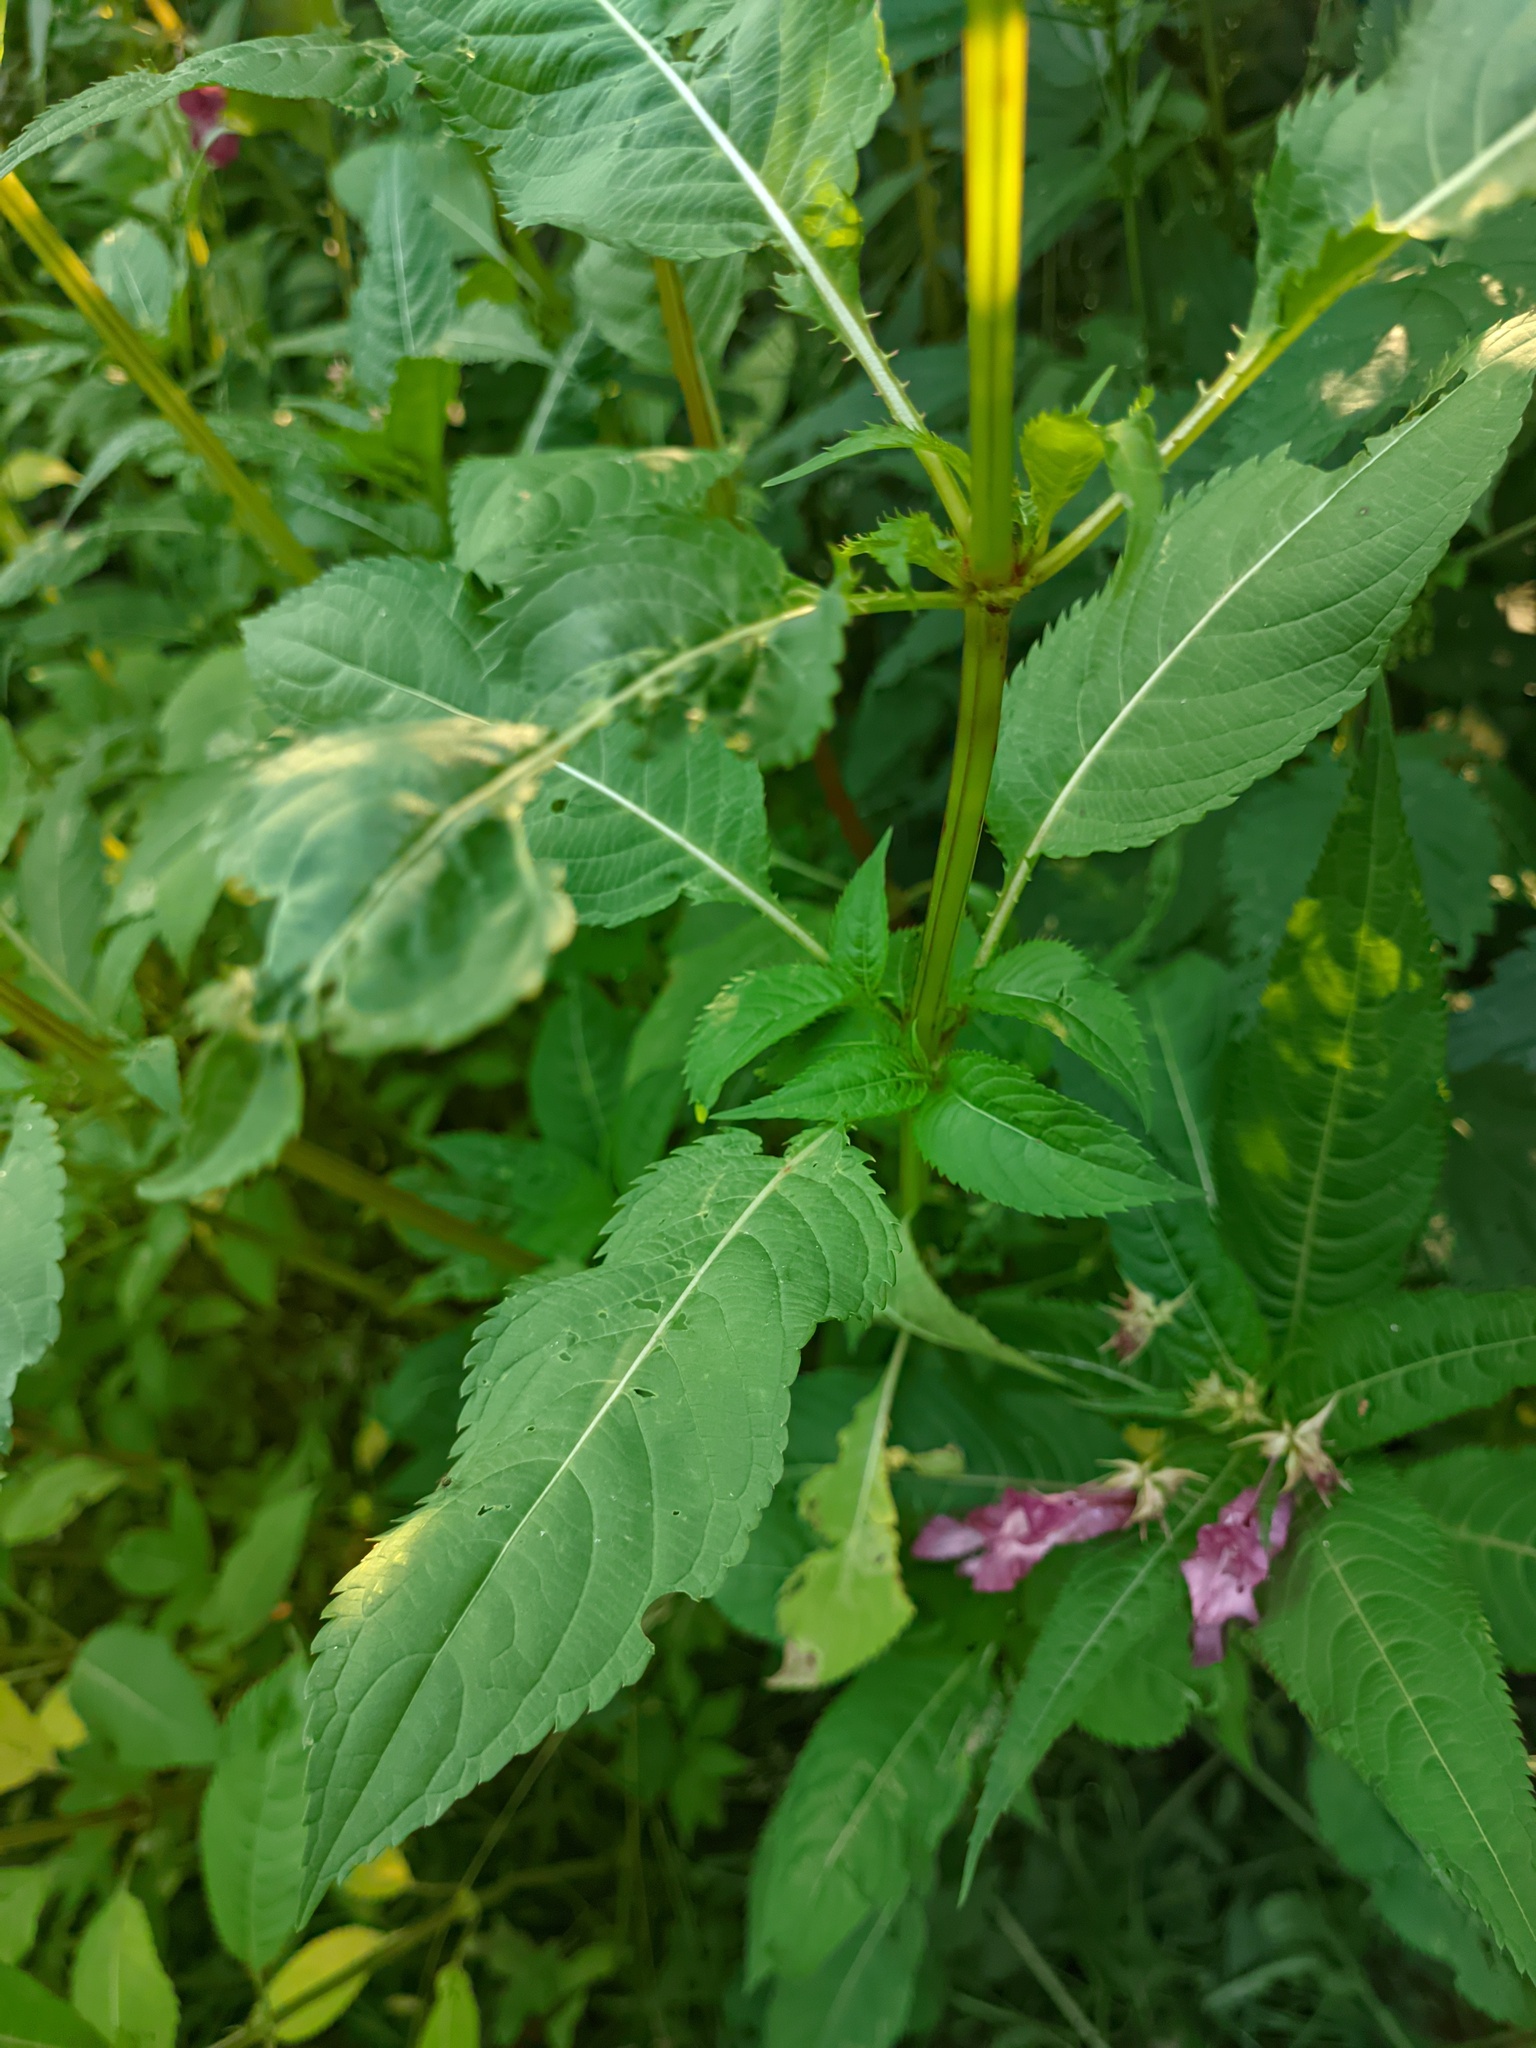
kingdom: Plantae
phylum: Tracheophyta
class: Magnoliopsida
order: Ericales
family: Balsaminaceae
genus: Impatiens
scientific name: Impatiens glandulifera
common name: Himalayan balsam
